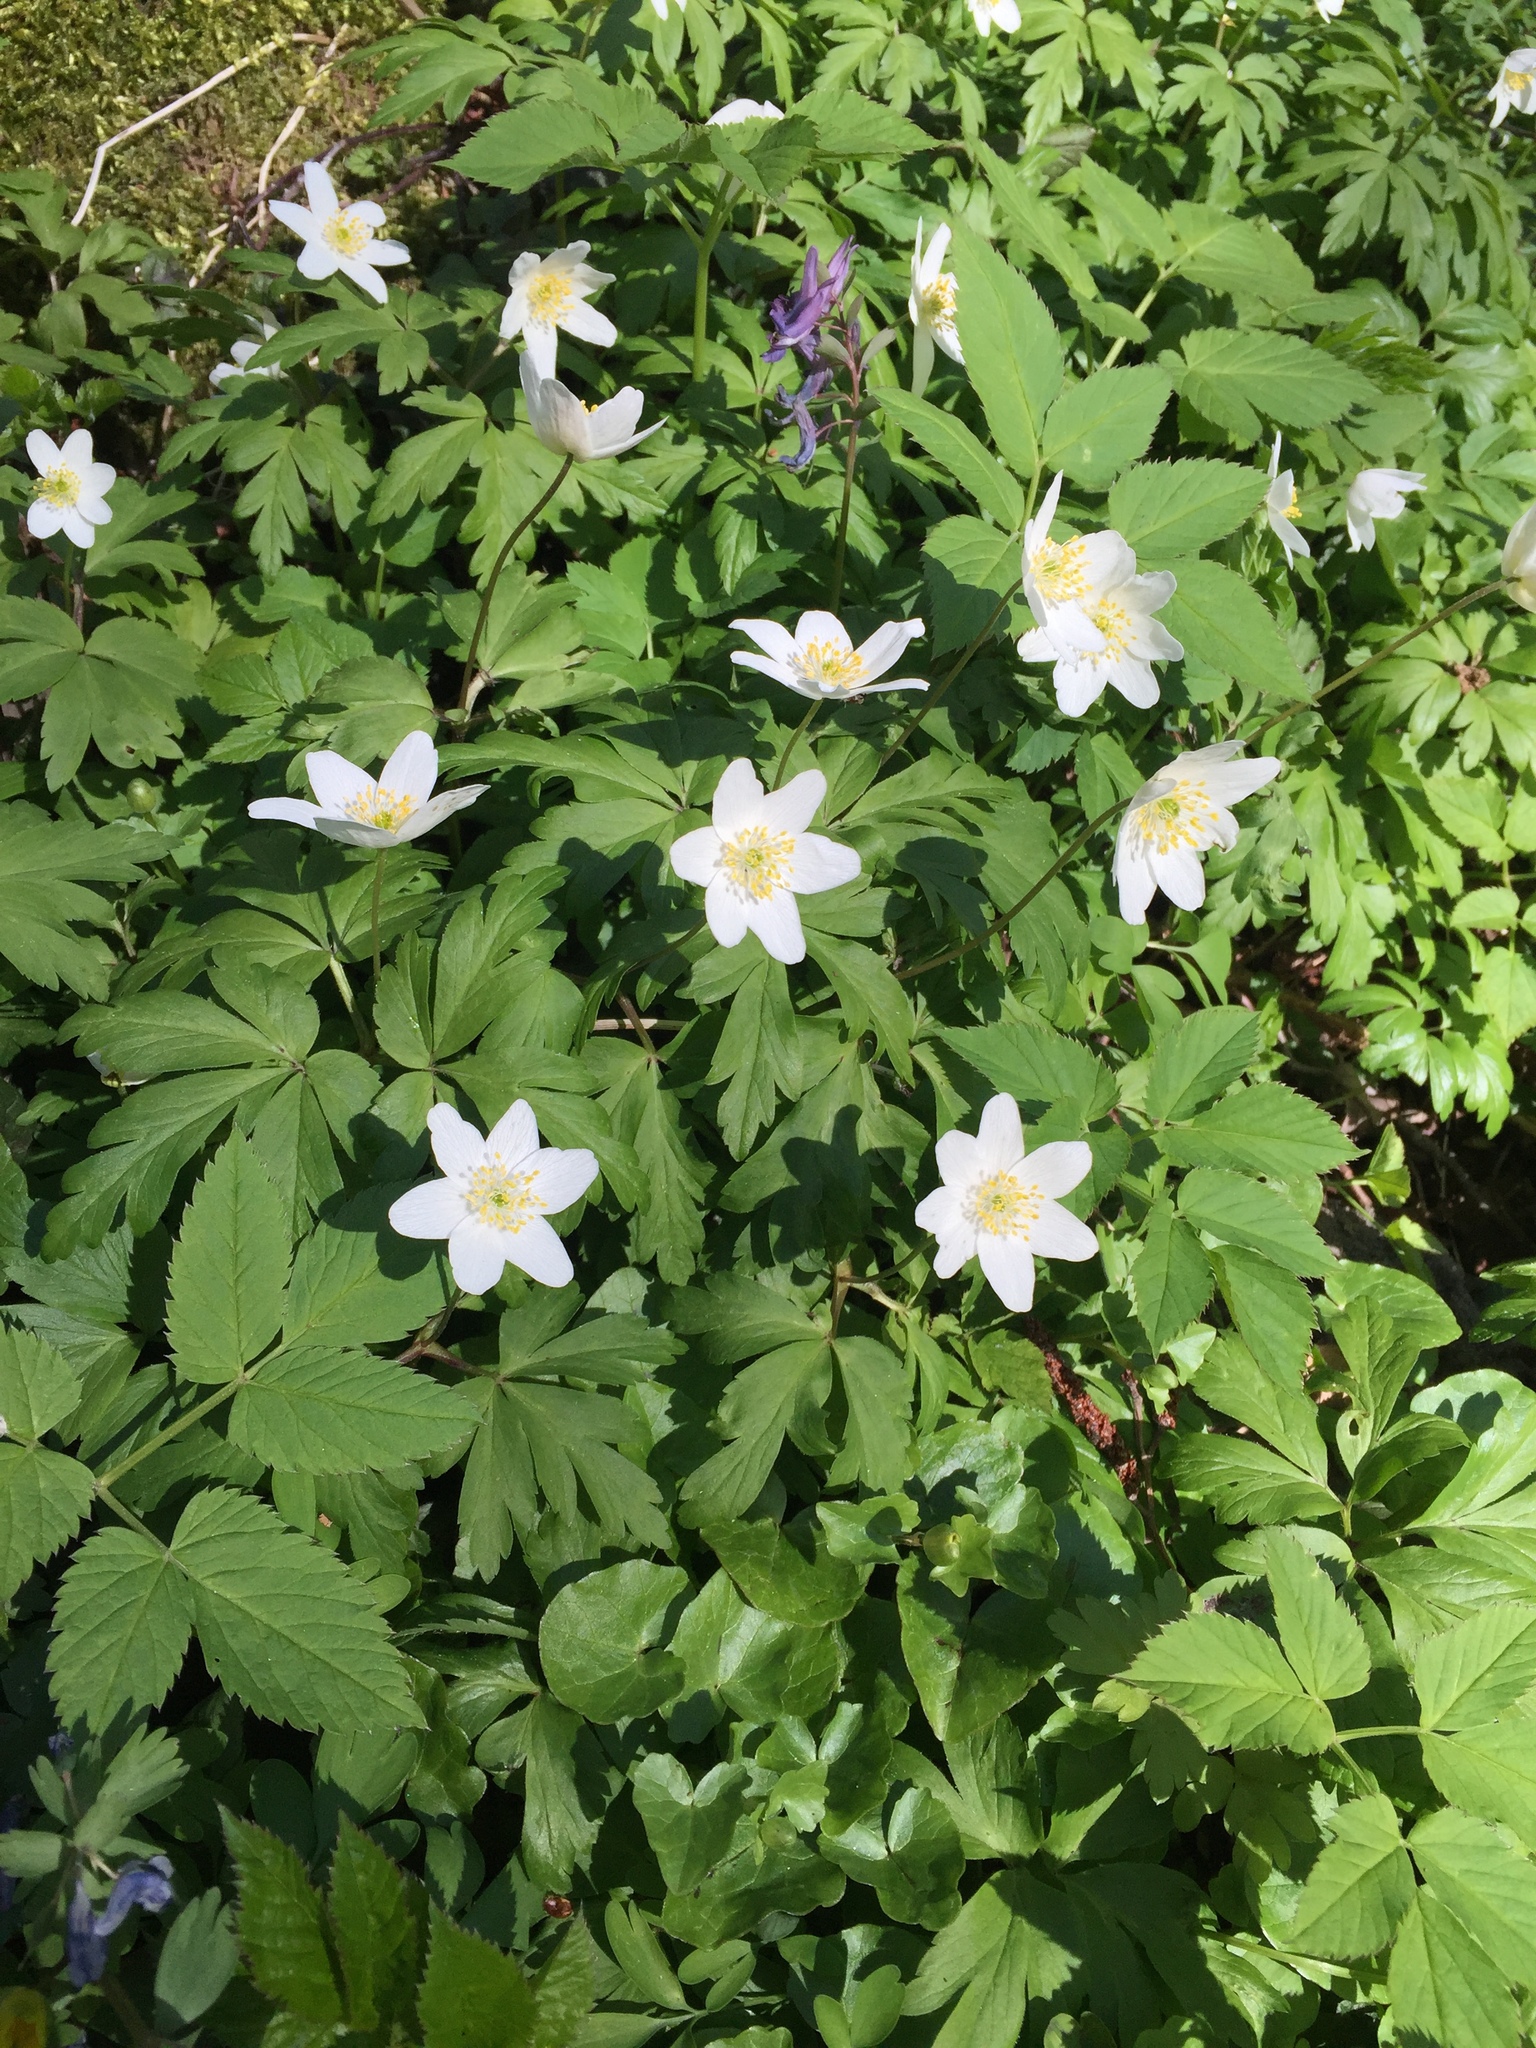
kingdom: Plantae
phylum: Tracheophyta
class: Magnoliopsida
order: Ranunculales
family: Ranunculaceae
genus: Anemone
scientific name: Anemone nemorosa
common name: Wood anemone
